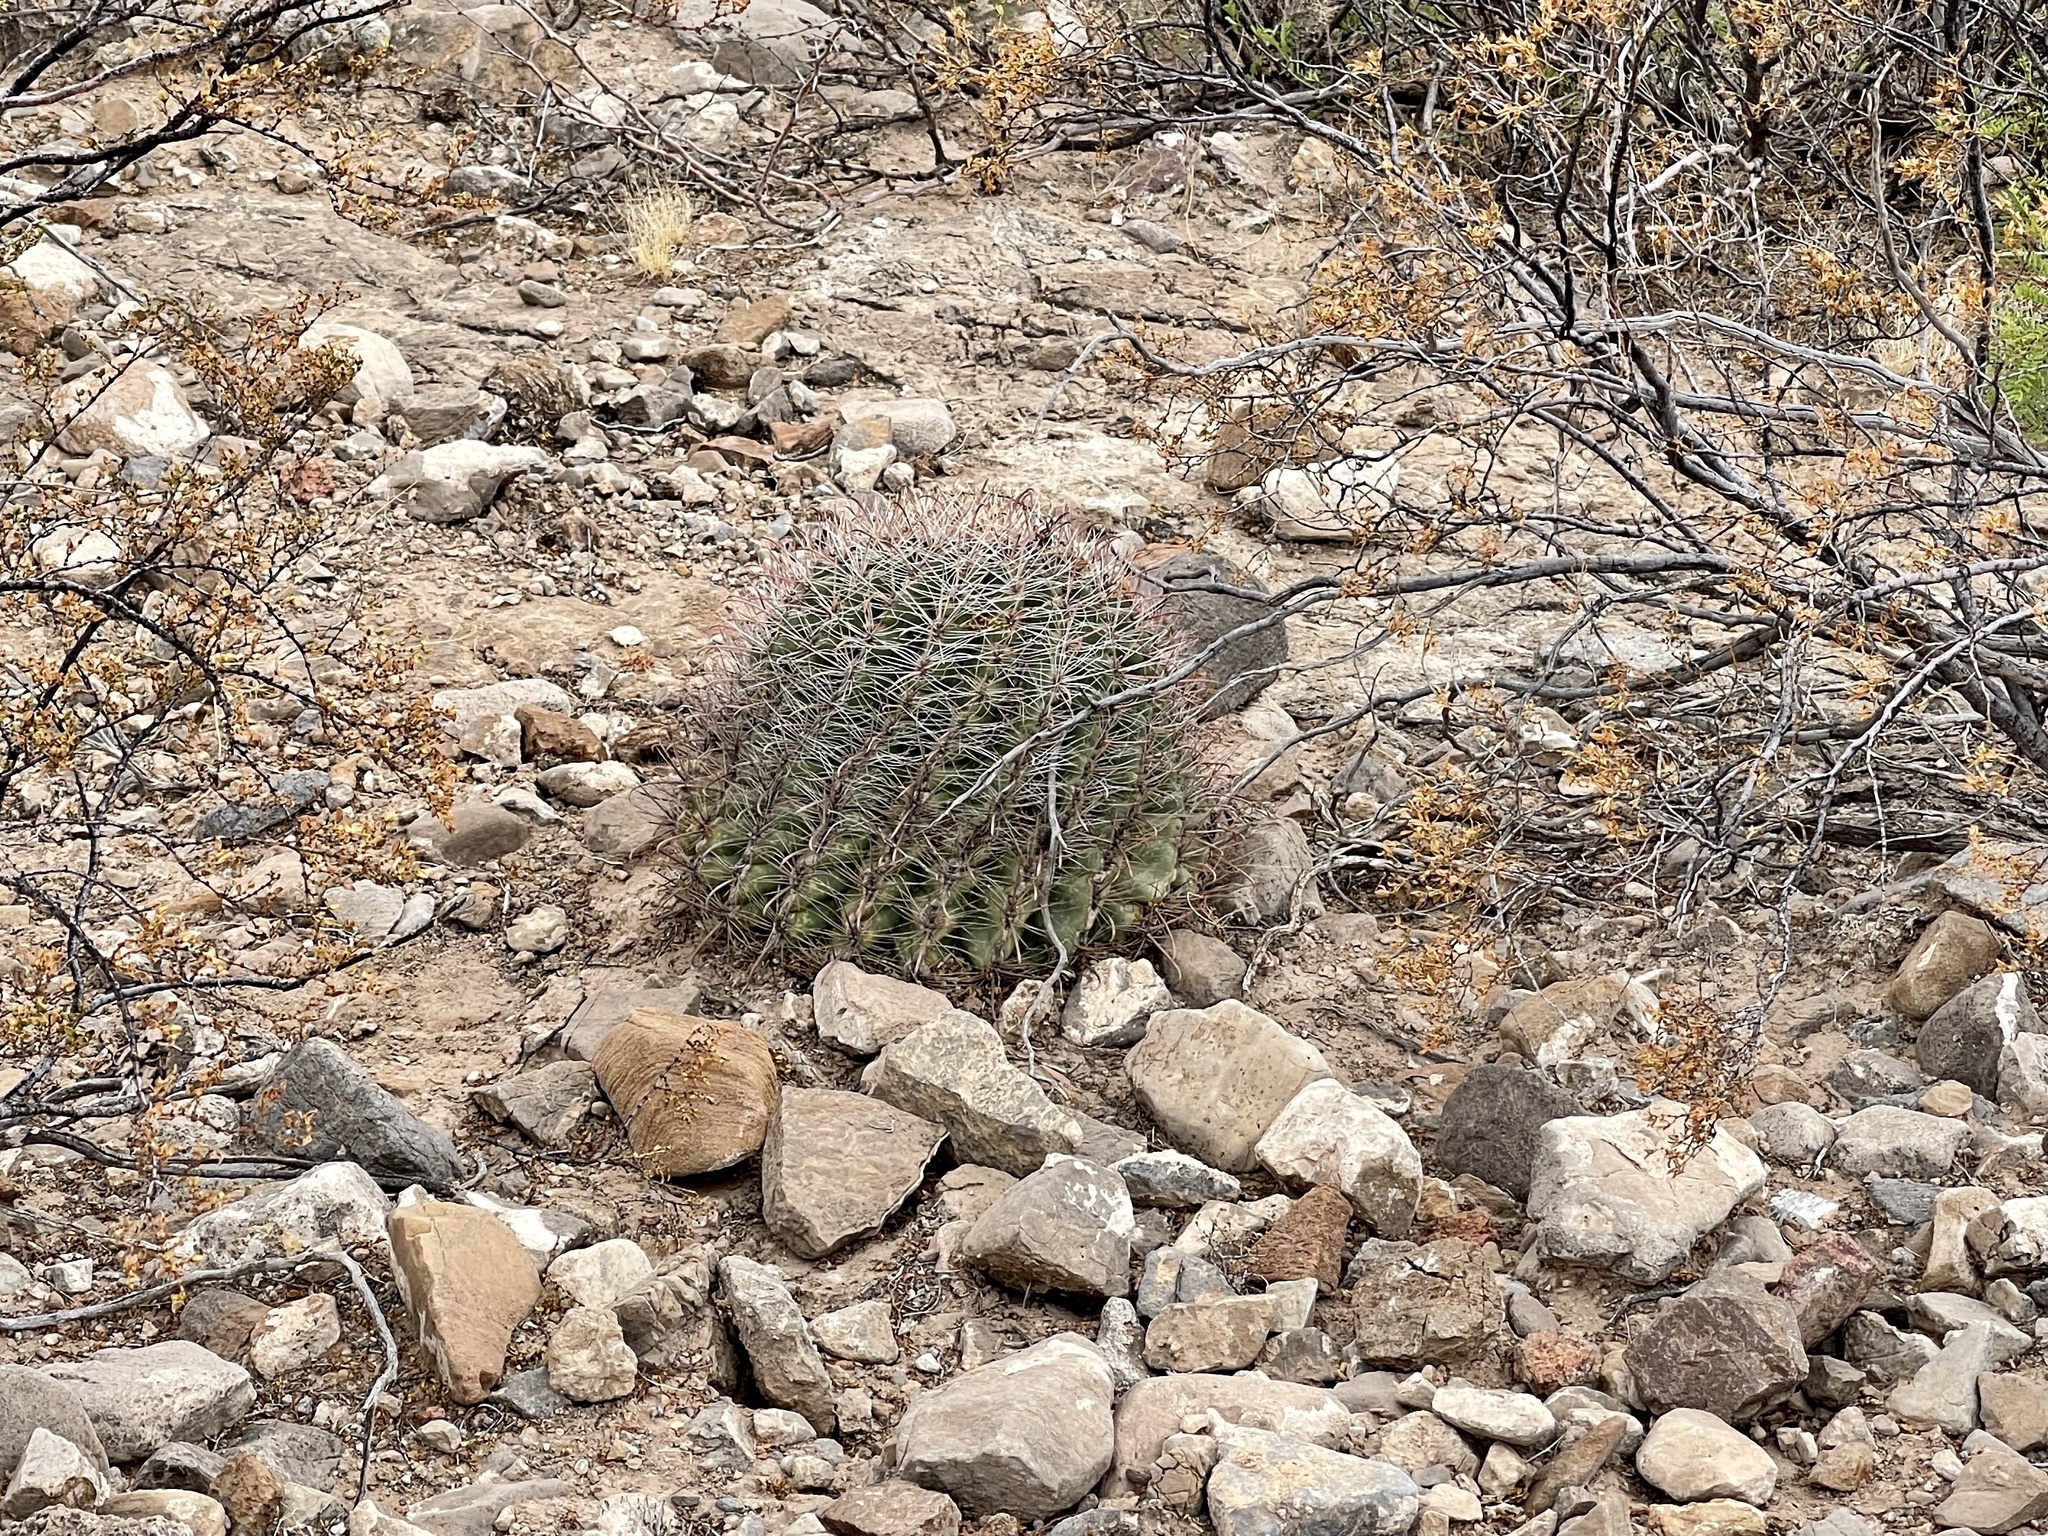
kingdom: Plantae
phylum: Tracheophyta
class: Magnoliopsida
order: Caryophyllales
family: Cactaceae
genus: Ferocactus
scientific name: Ferocactus wislizeni
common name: Candy barrel cactus
